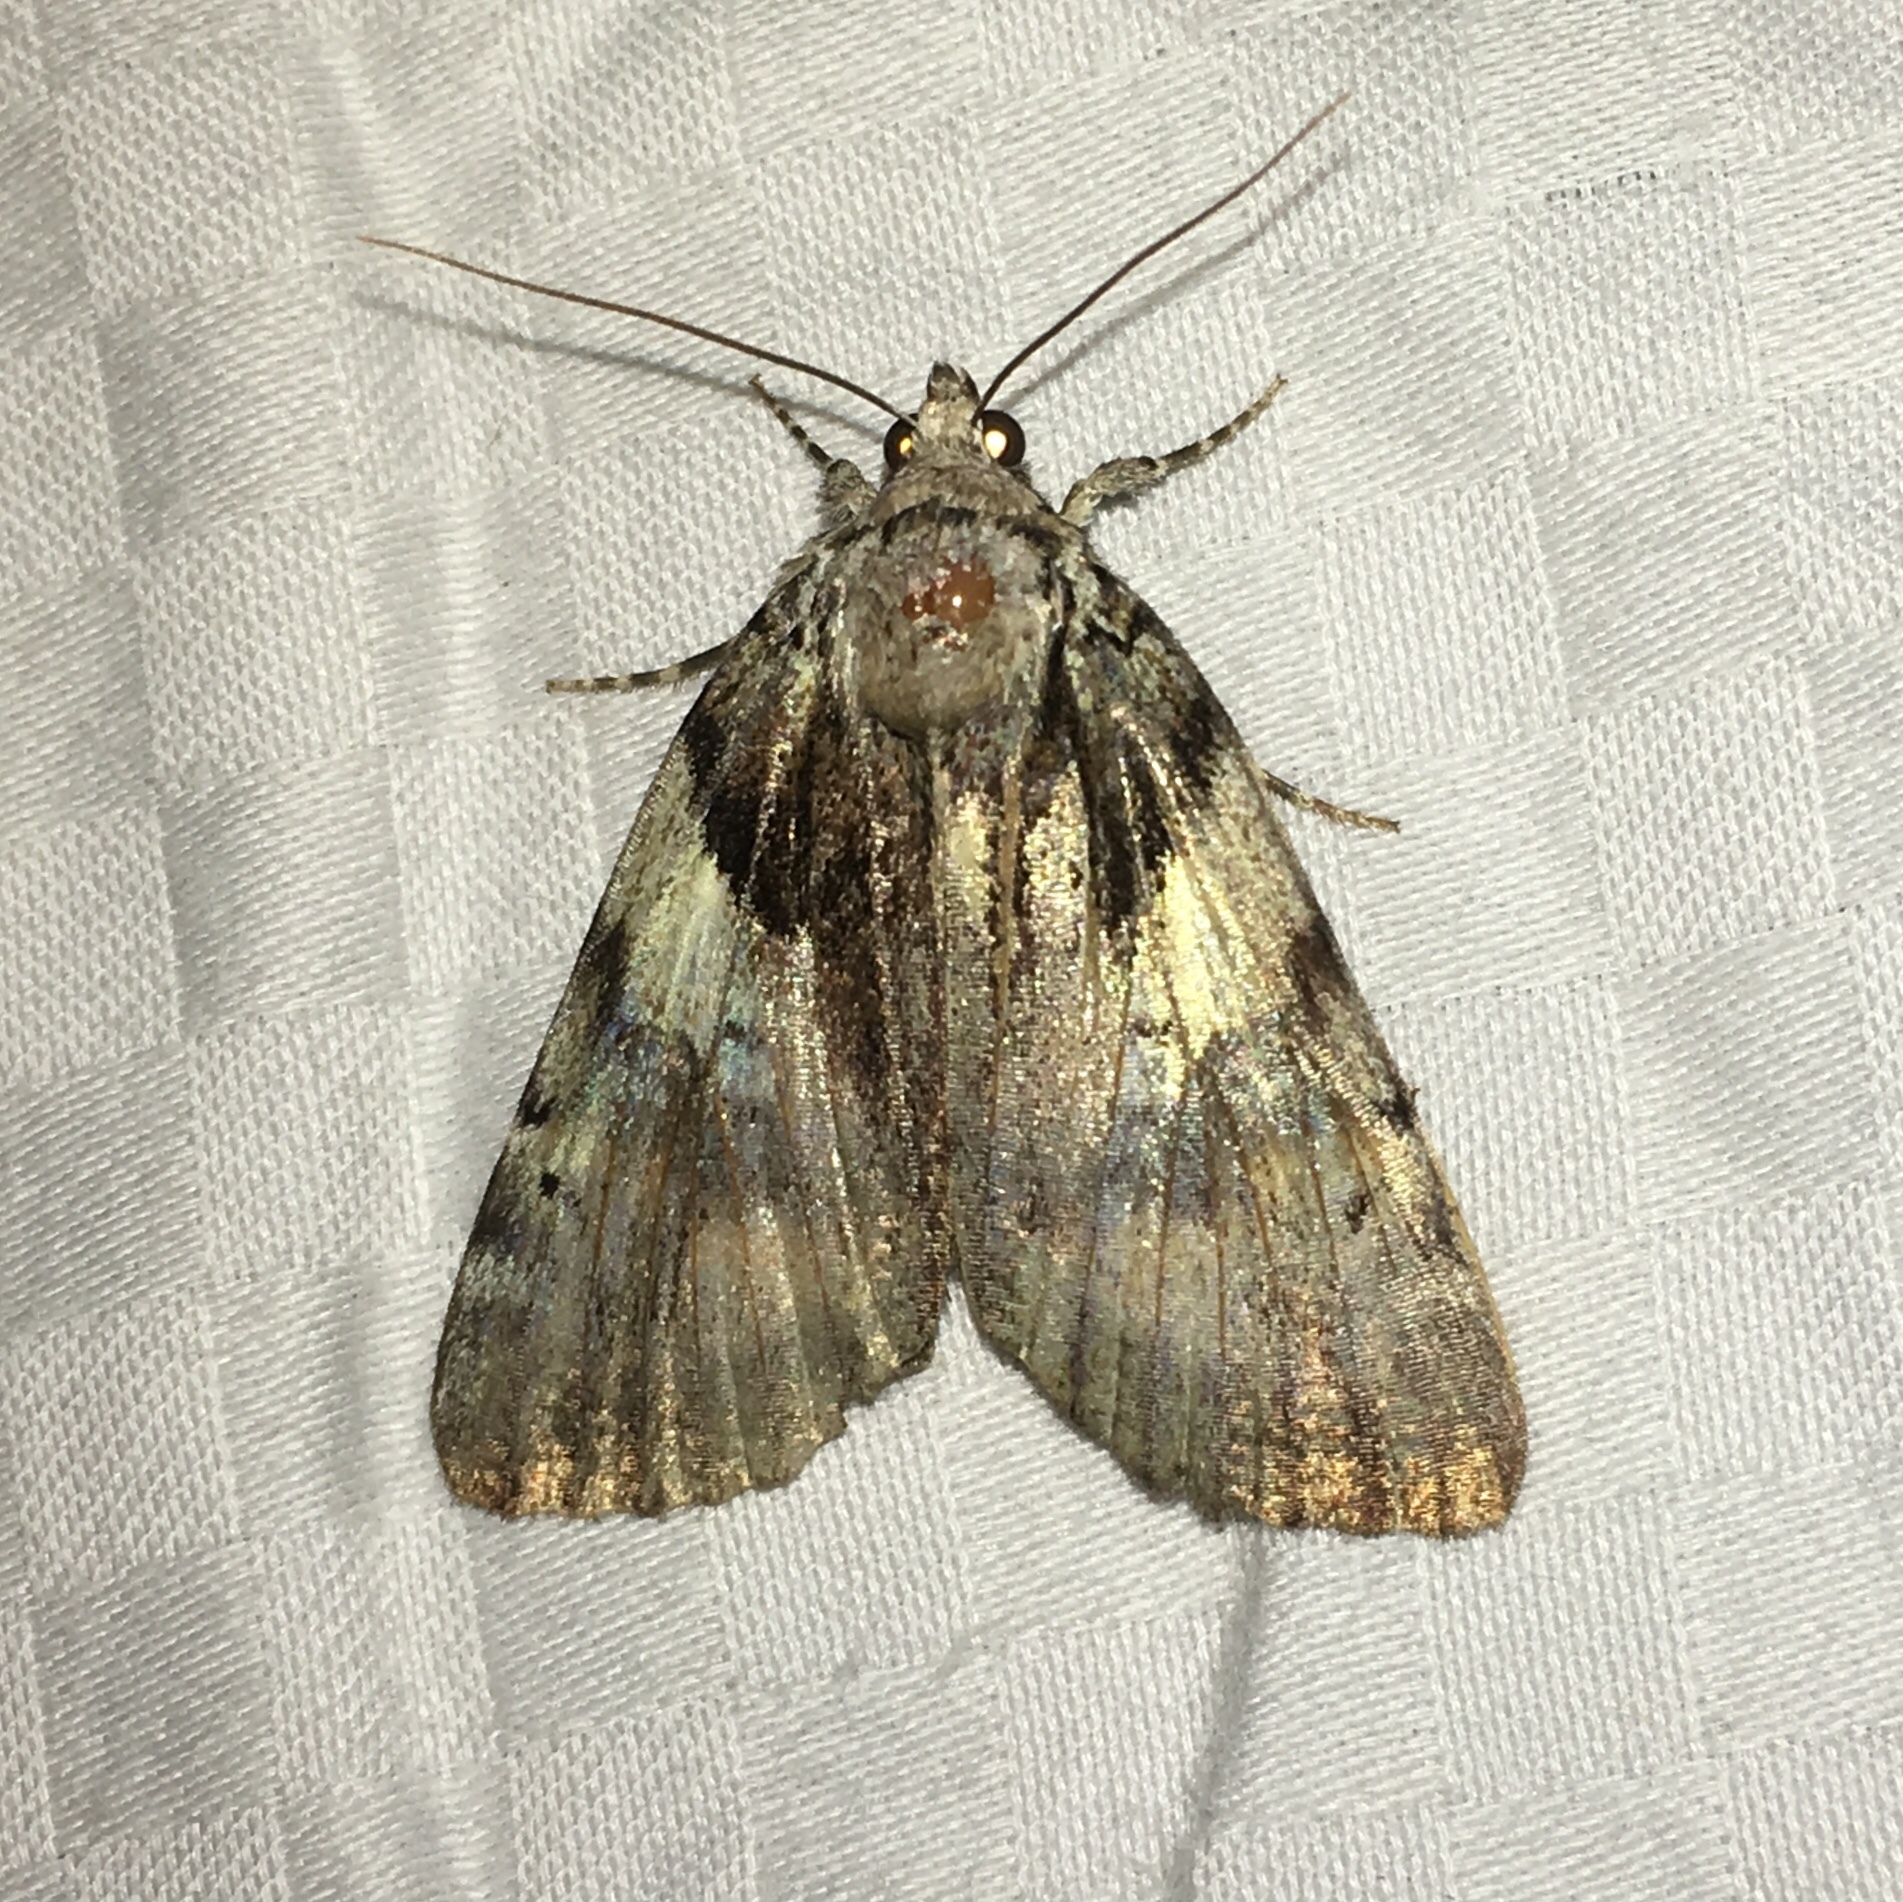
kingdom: Animalia
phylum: Arthropoda
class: Insecta
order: Lepidoptera
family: Erebidae
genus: Catocala
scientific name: Catocala blandula
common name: Charming underwing
